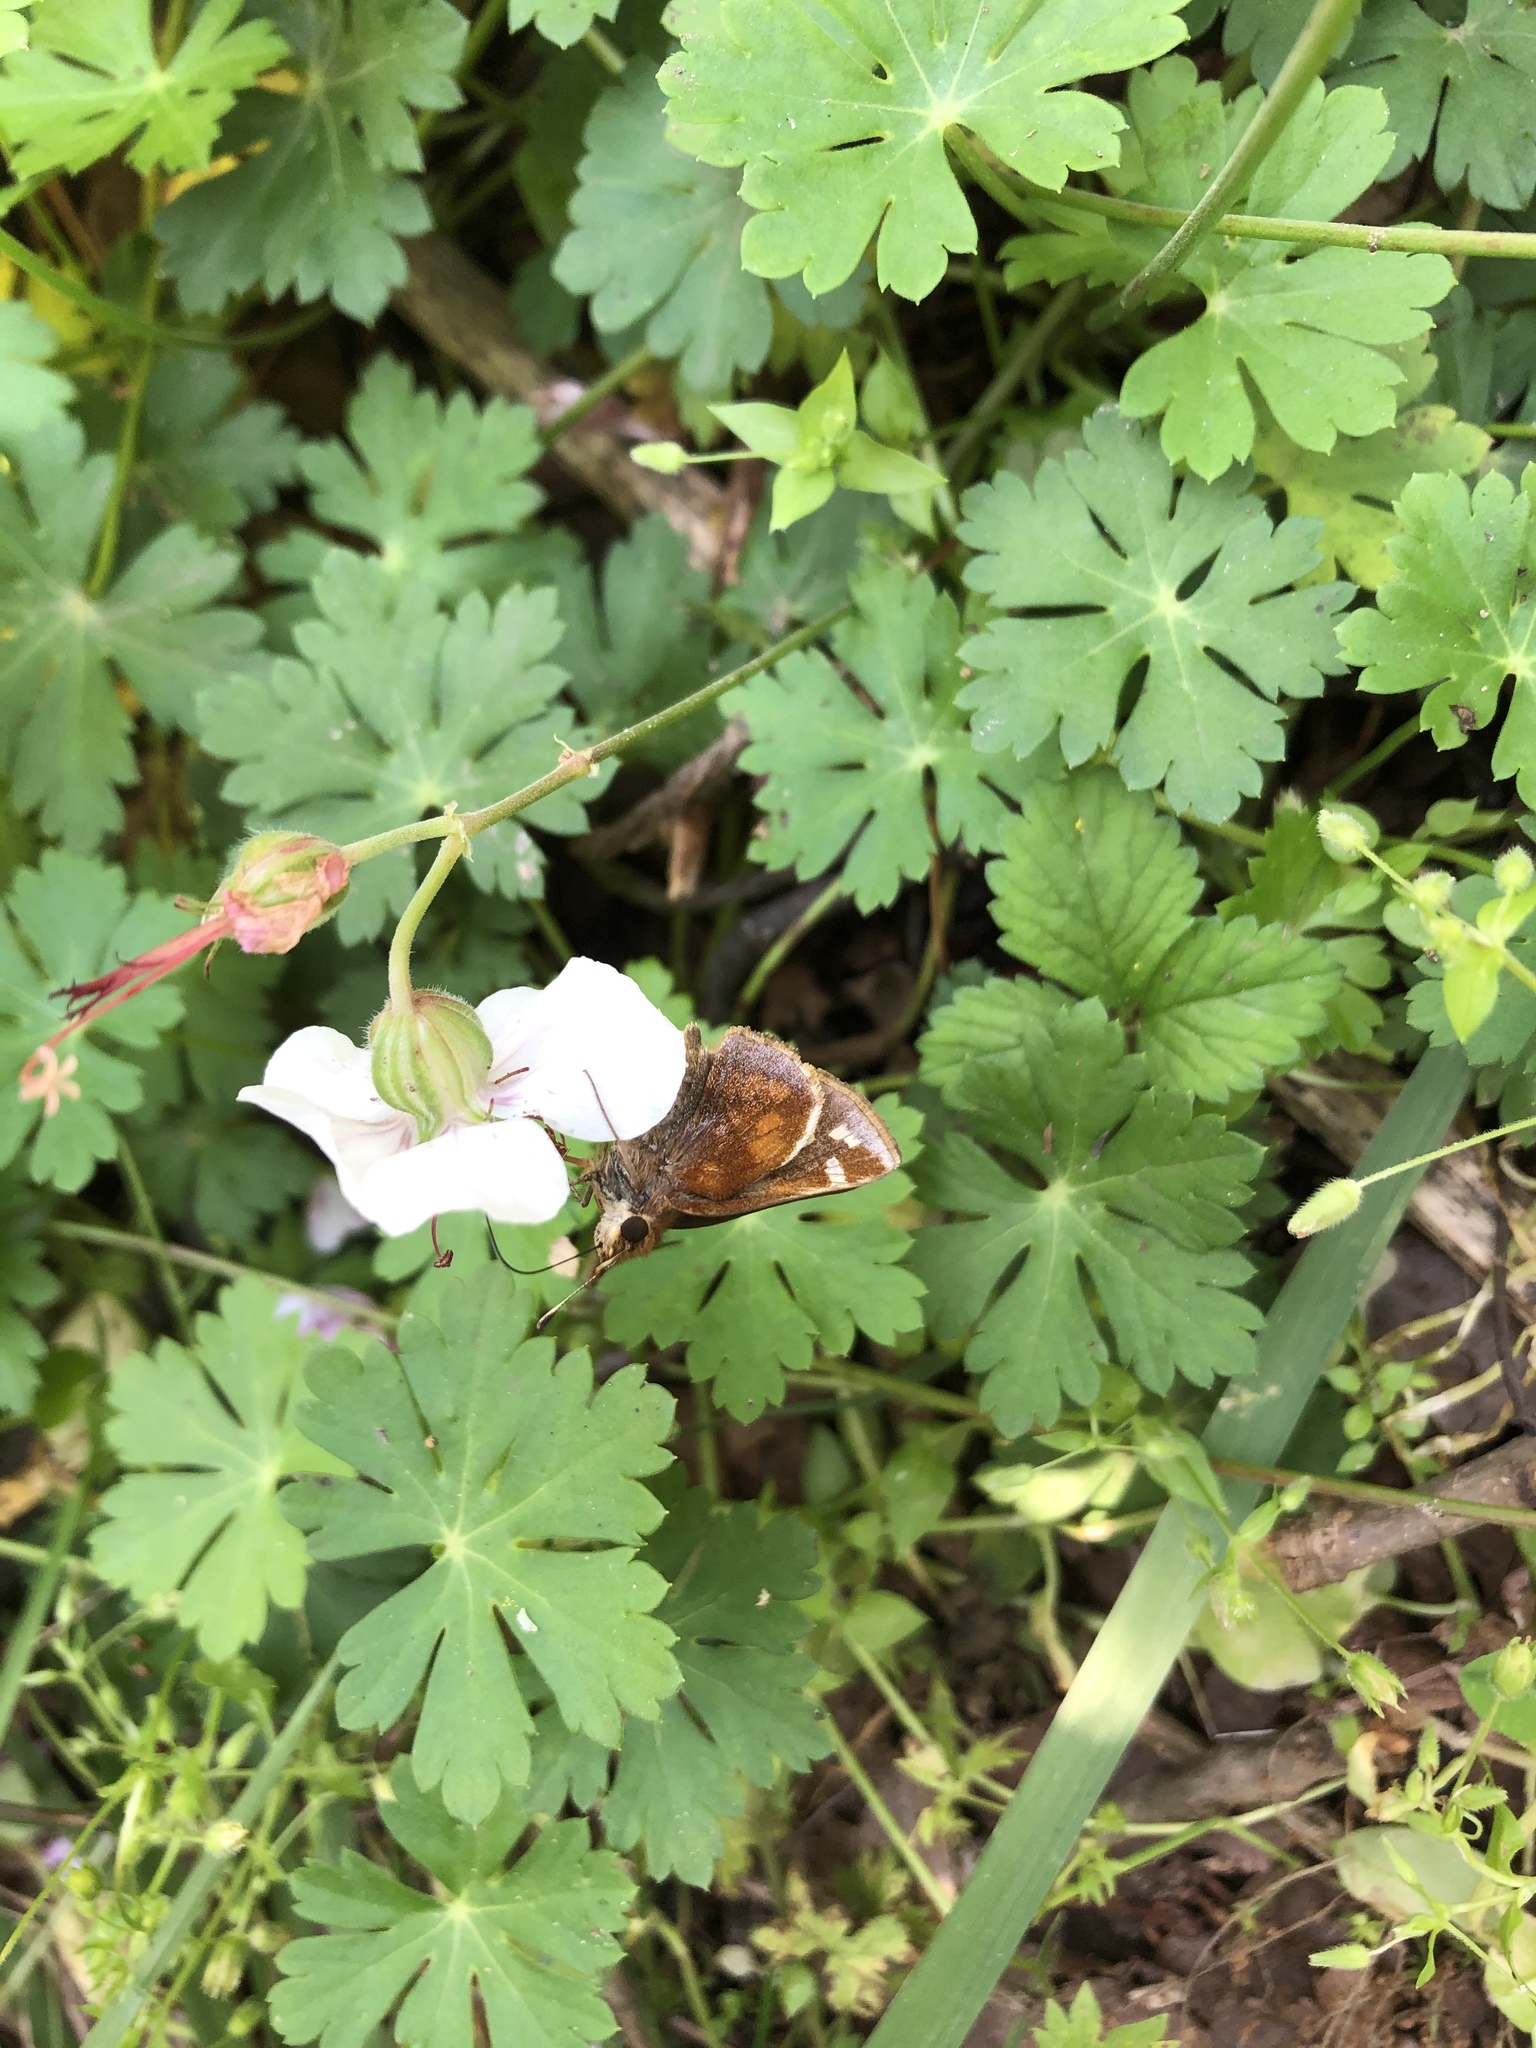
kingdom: Animalia
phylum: Arthropoda
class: Insecta
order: Lepidoptera
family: Hesperiidae
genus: Lon
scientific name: Lon zabulon
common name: Zabulon skipper
